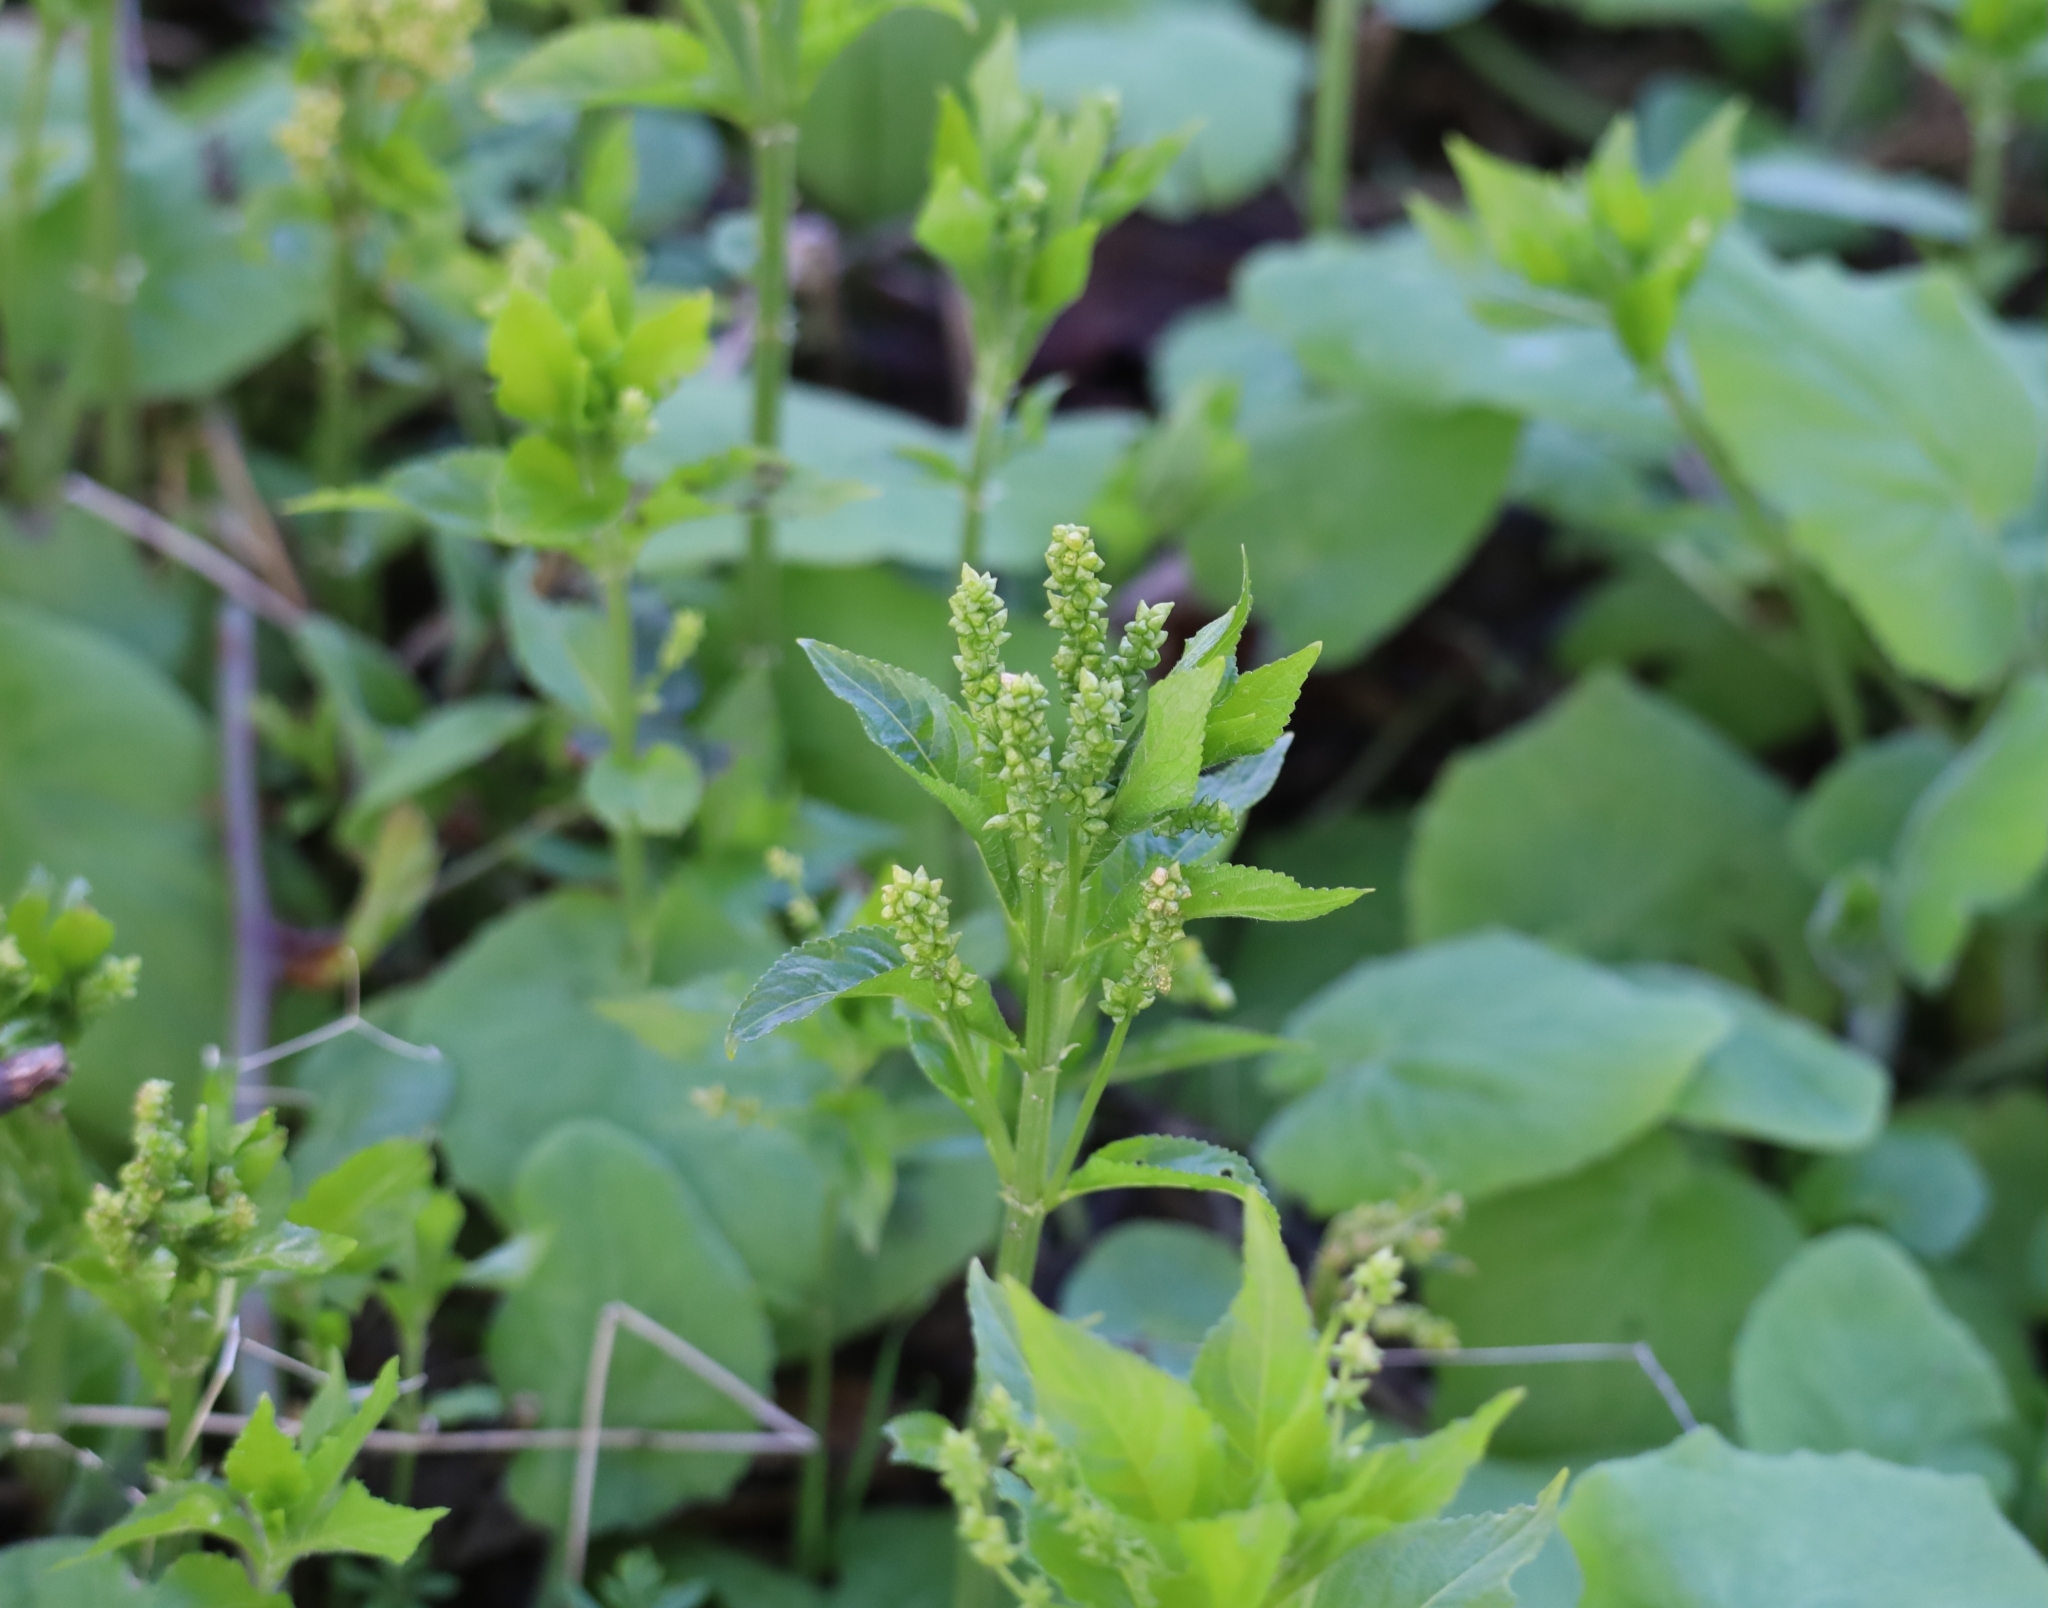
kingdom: Plantae
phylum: Tracheophyta
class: Magnoliopsida
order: Malpighiales
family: Euphorbiaceae
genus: Mercurialis
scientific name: Mercurialis perennis
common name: Dog mercury
